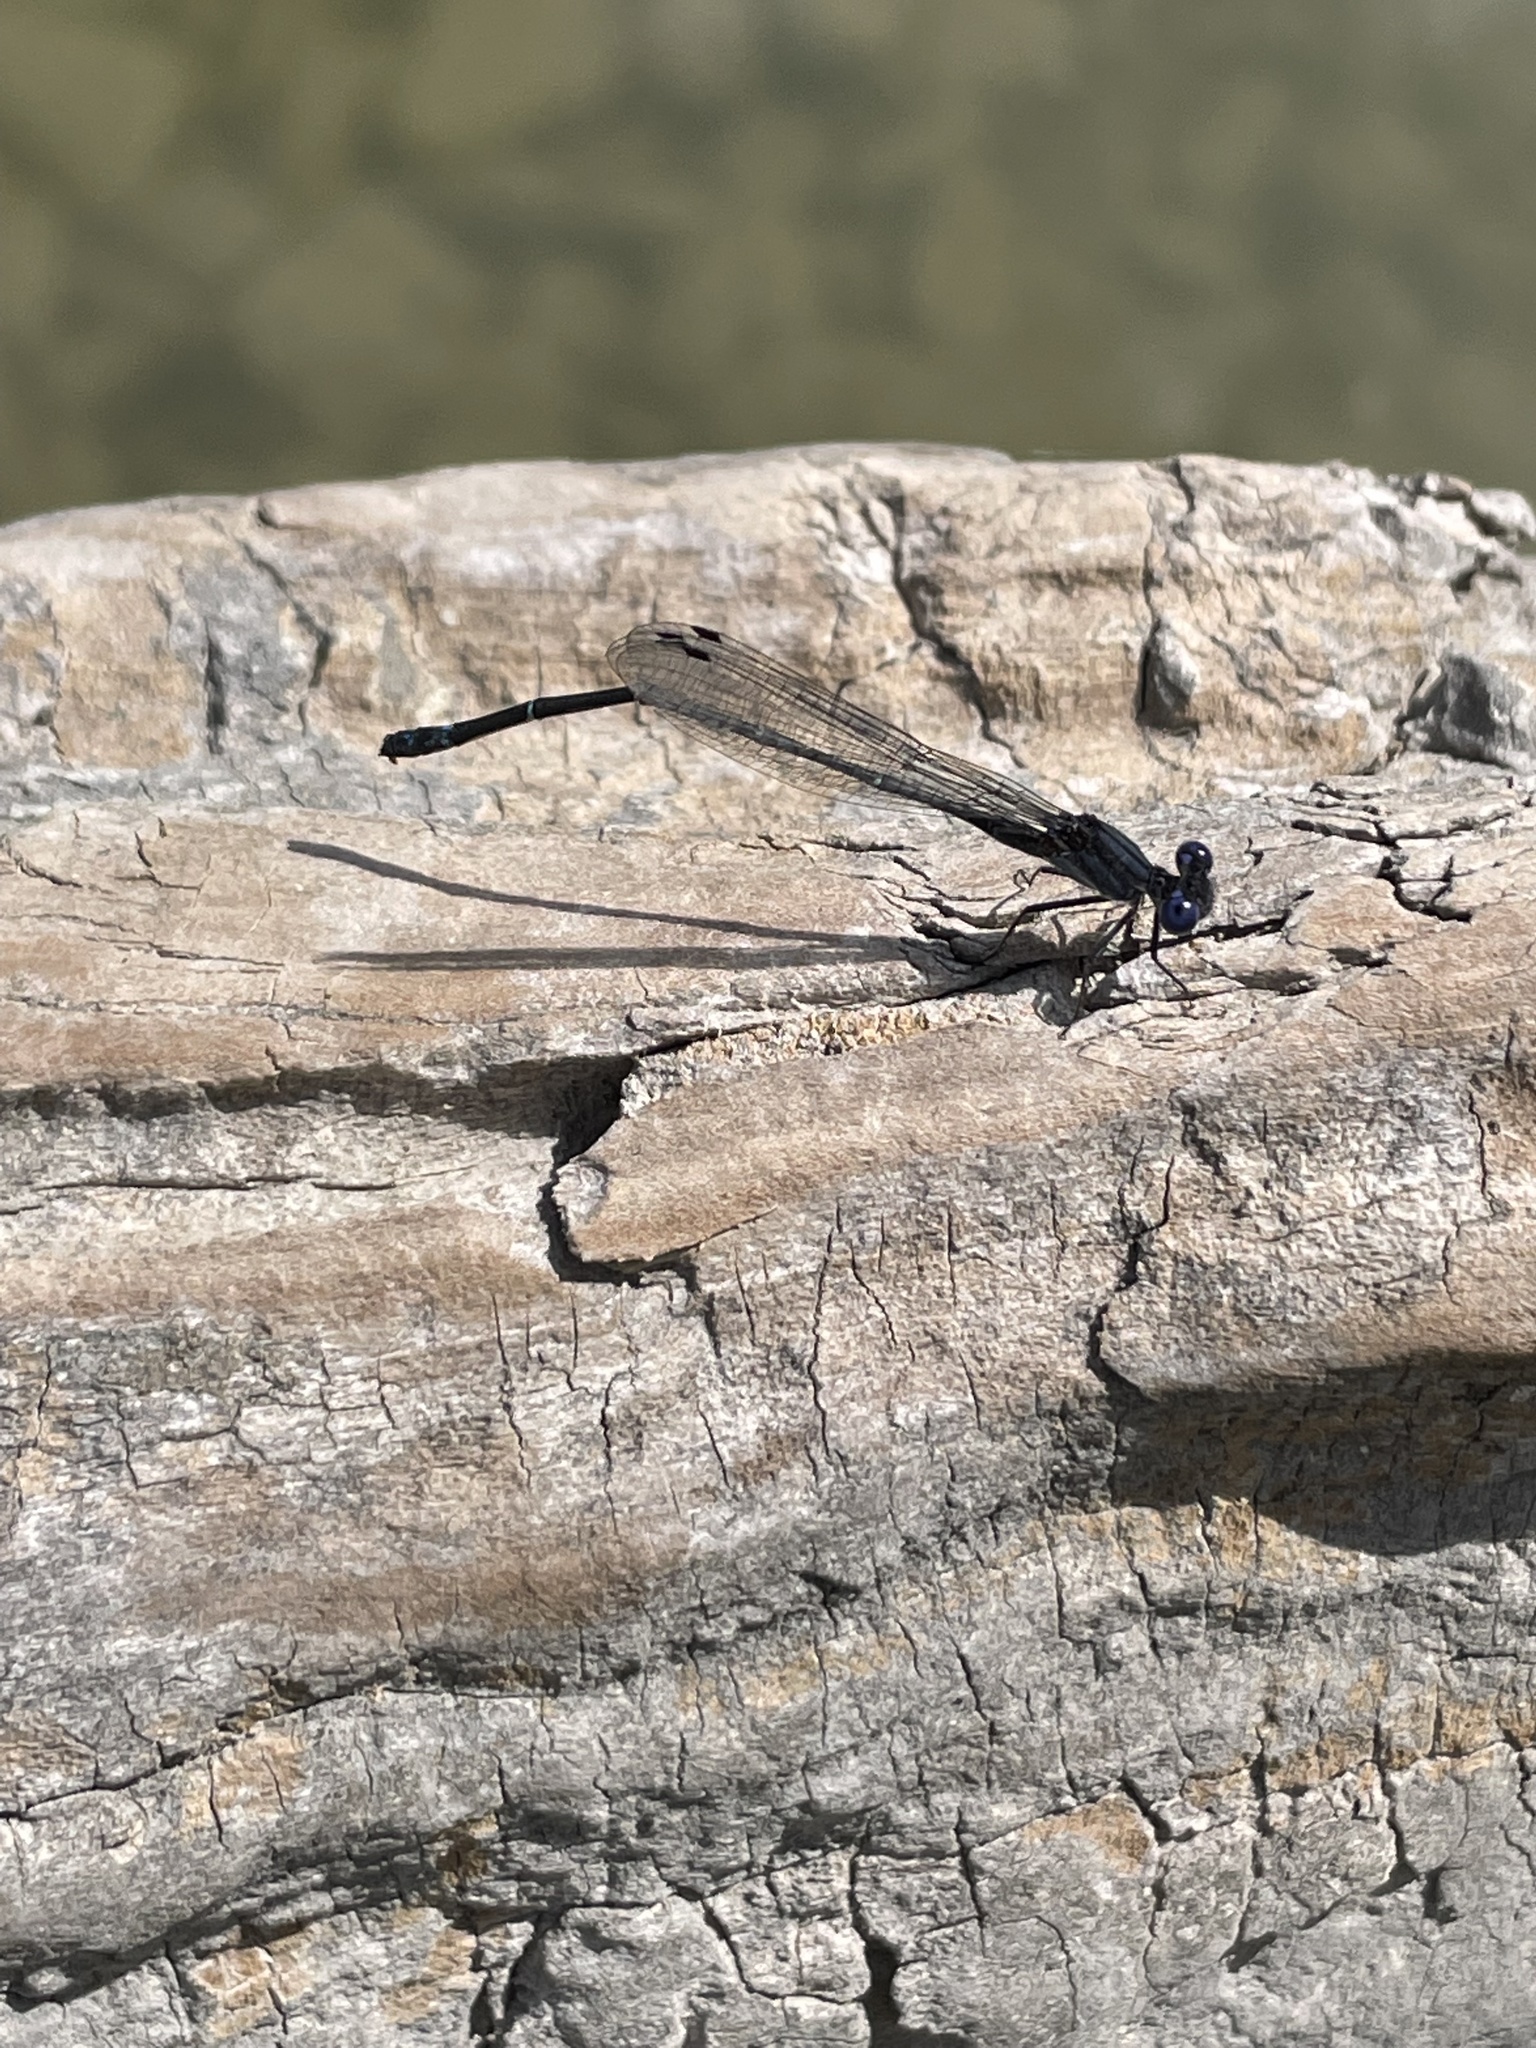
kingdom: Animalia
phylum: Arthropoda
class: Insecta
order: Odonata
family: Coenagrionidae
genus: Argia
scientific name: Argia translata
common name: Dusky dancer
